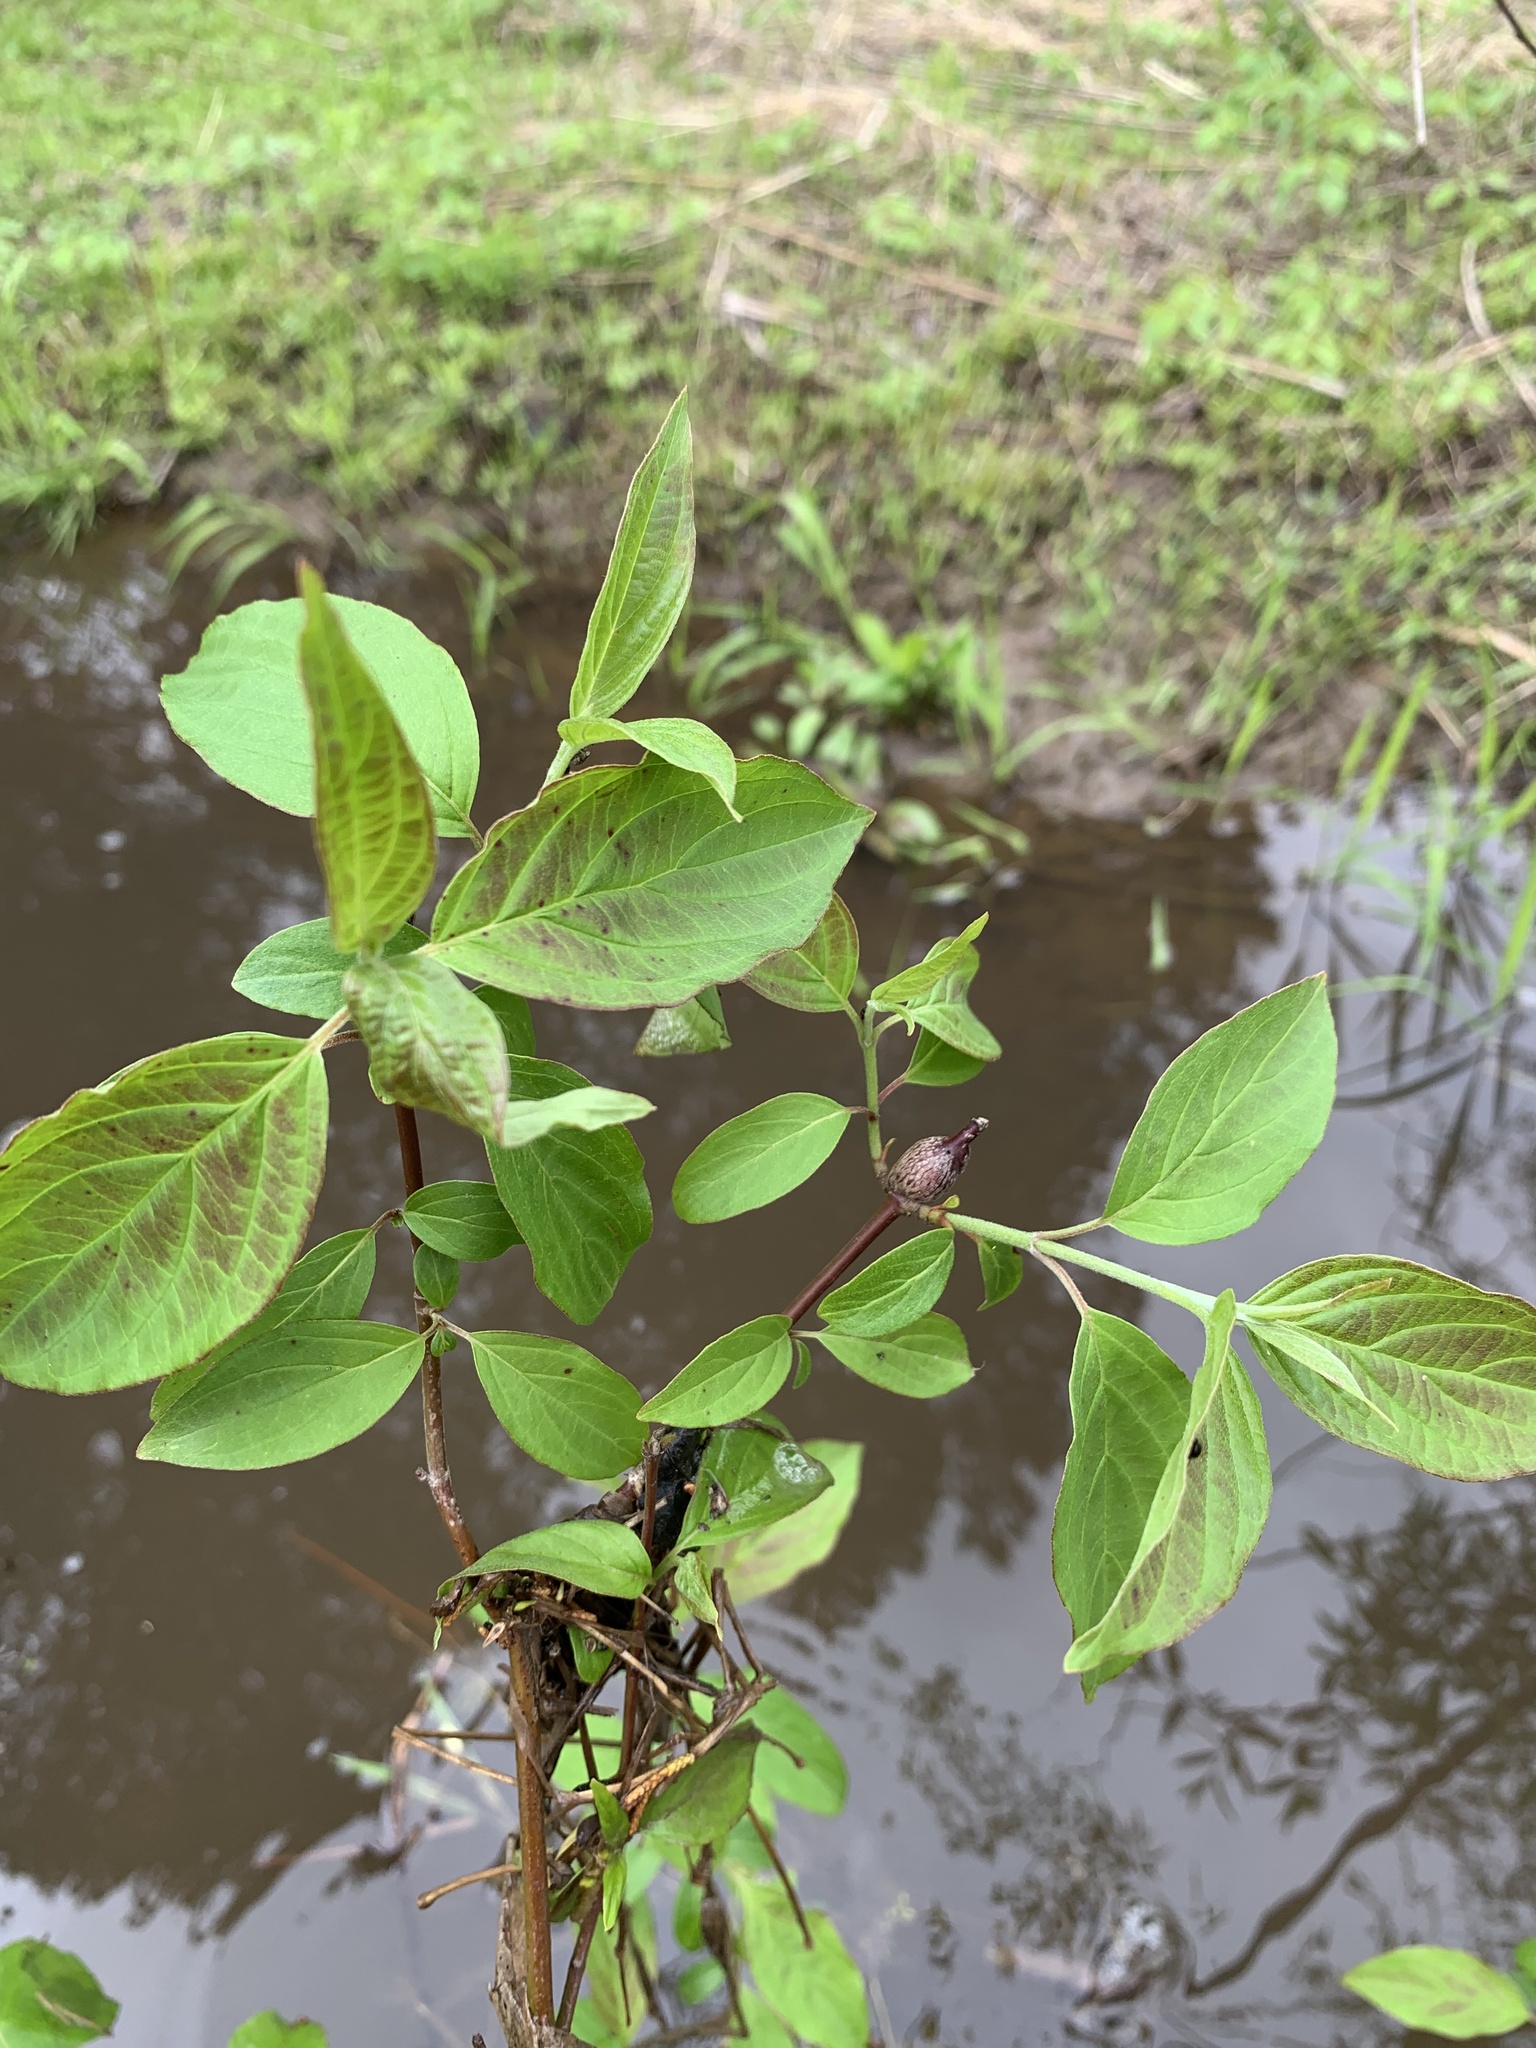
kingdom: Animalia
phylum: Arthropoda
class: Insecta
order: Diptera
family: Cecidomyiidae
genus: Neolasioptera
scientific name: Neolasioptera cornicola
